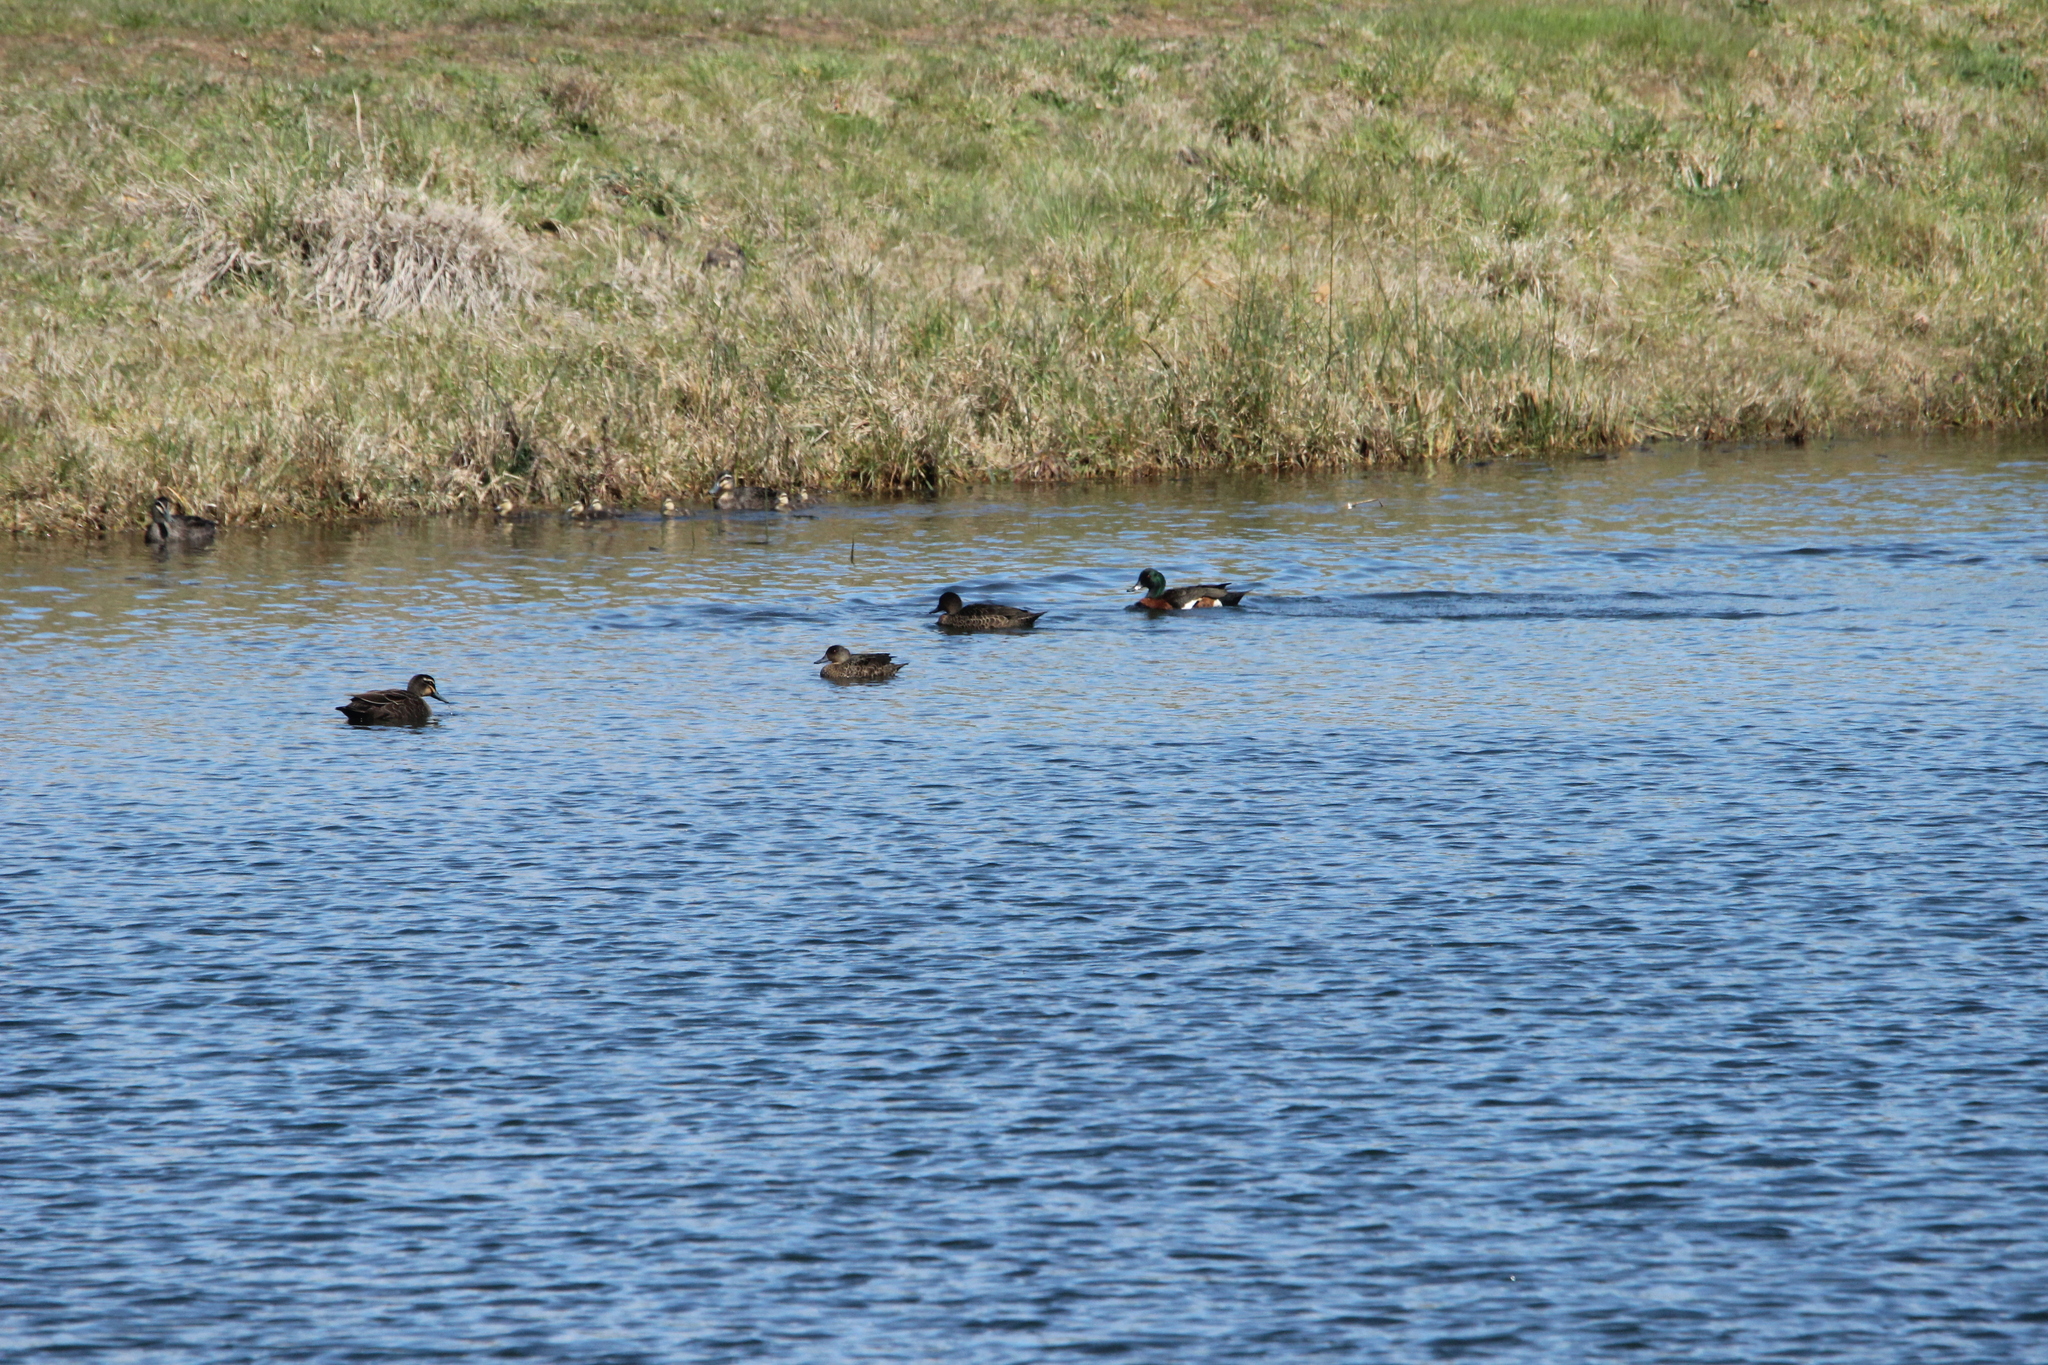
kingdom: Animalia
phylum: Chordata
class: Aves
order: Anseriformes
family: Anatidae
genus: Anas
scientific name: Anas castanea
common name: Chestnut teal
